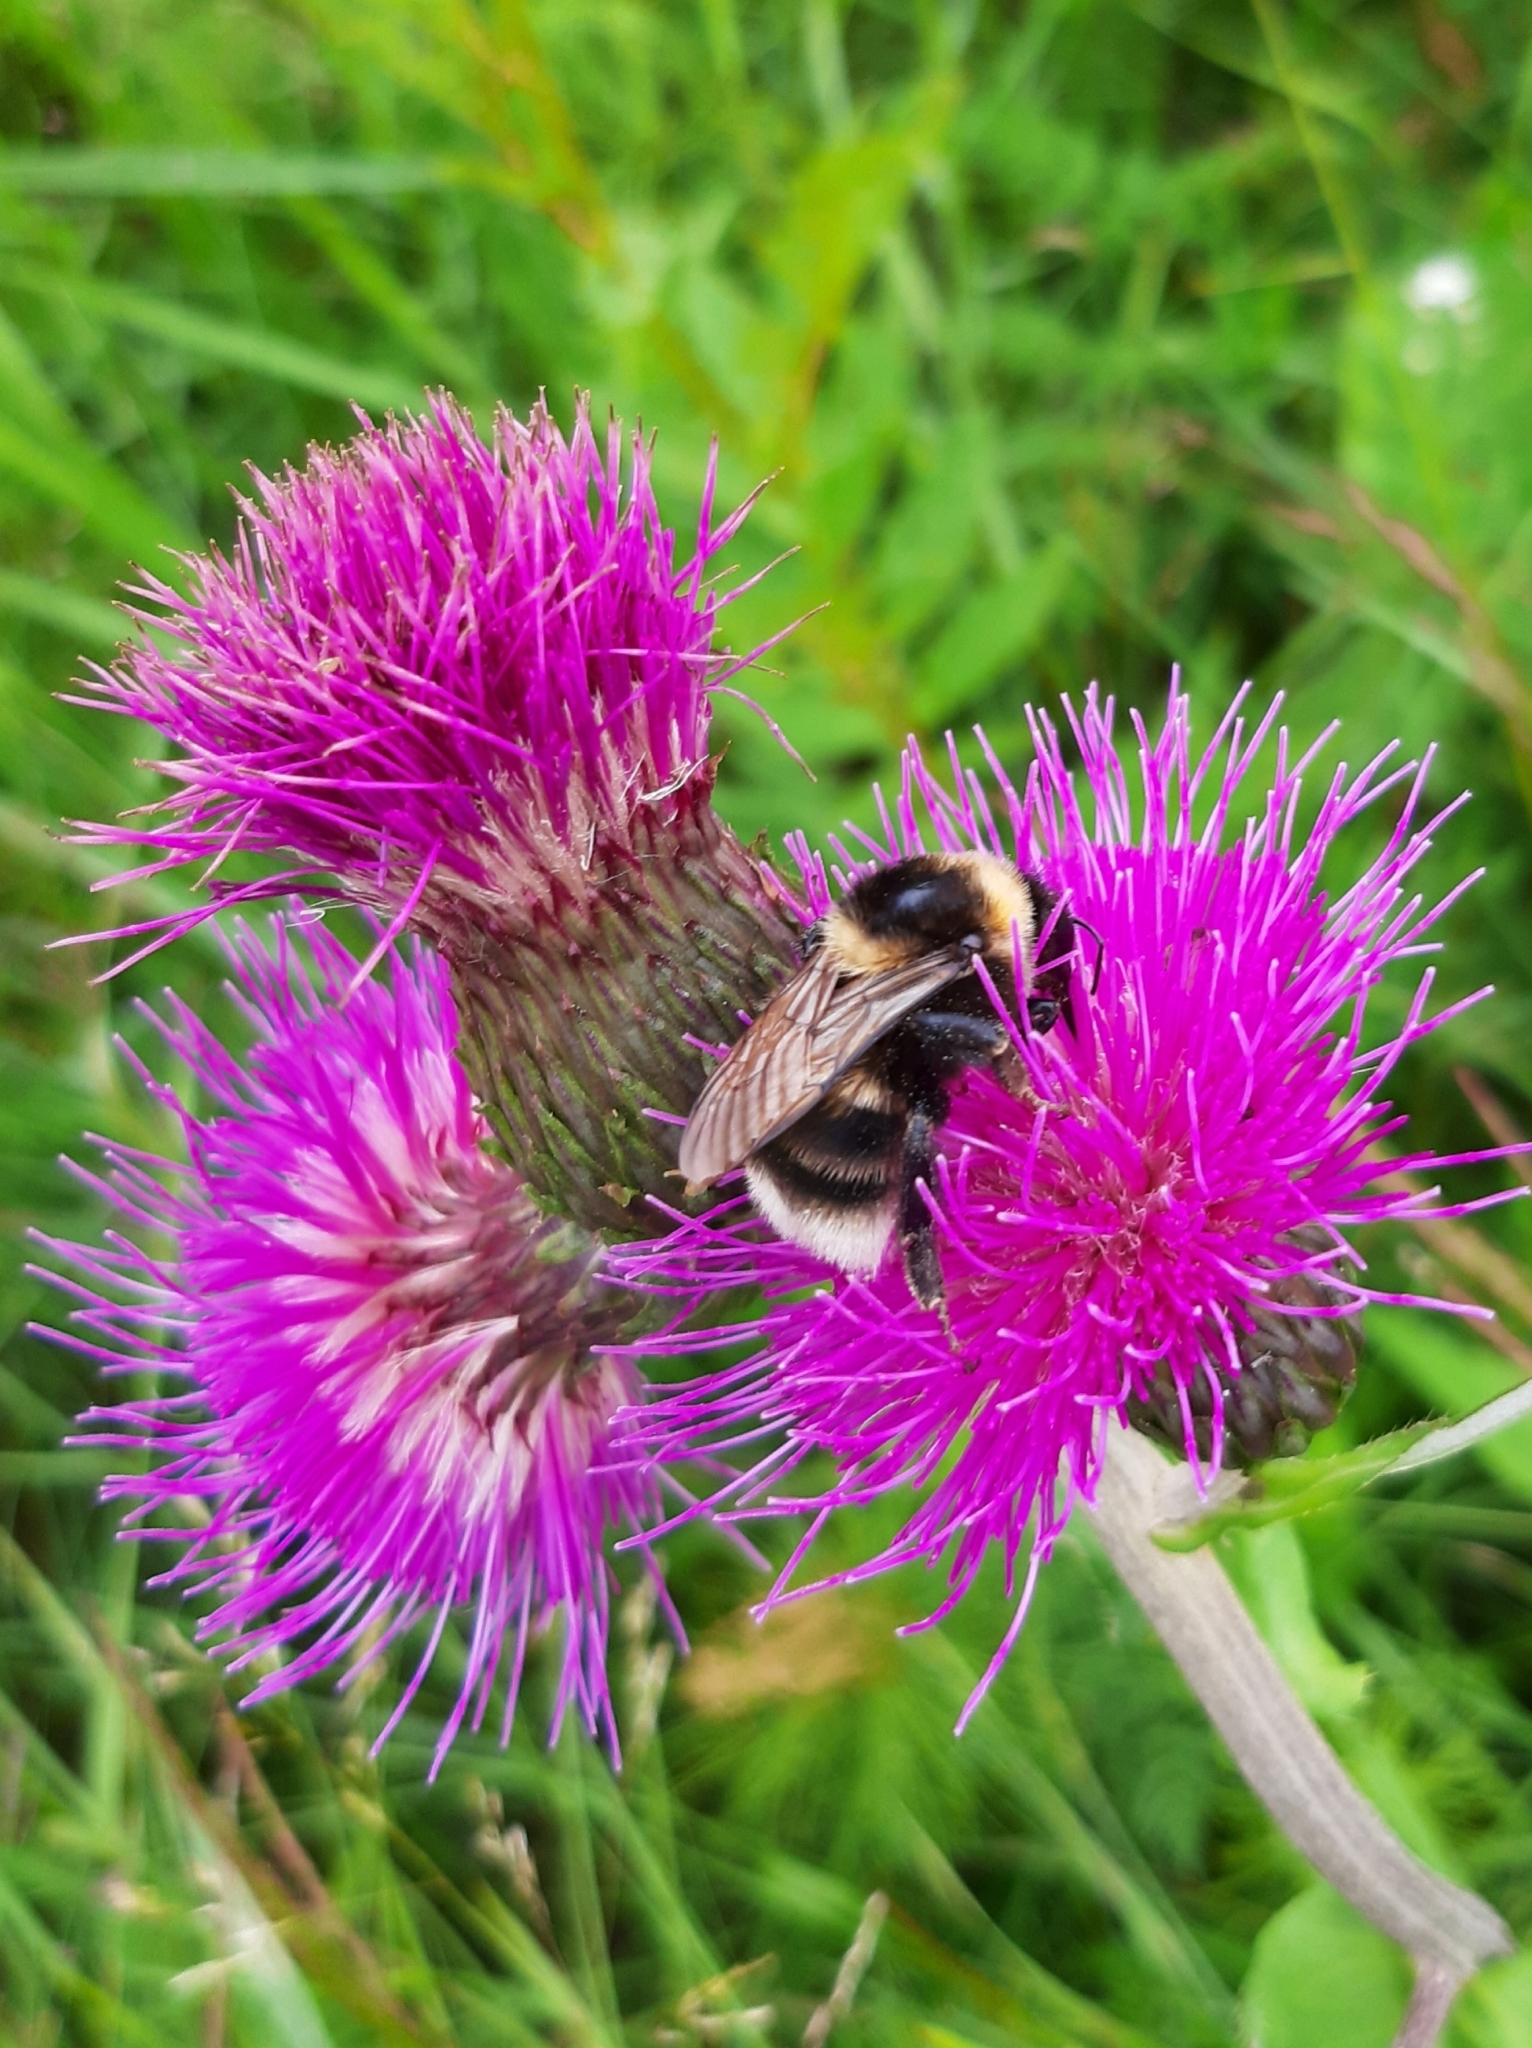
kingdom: Animalia
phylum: Arthropoda
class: Insecta
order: Hymenoptera
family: Apidae
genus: Bombus
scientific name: Bombus subterraneus
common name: Short-haired humble-bee
